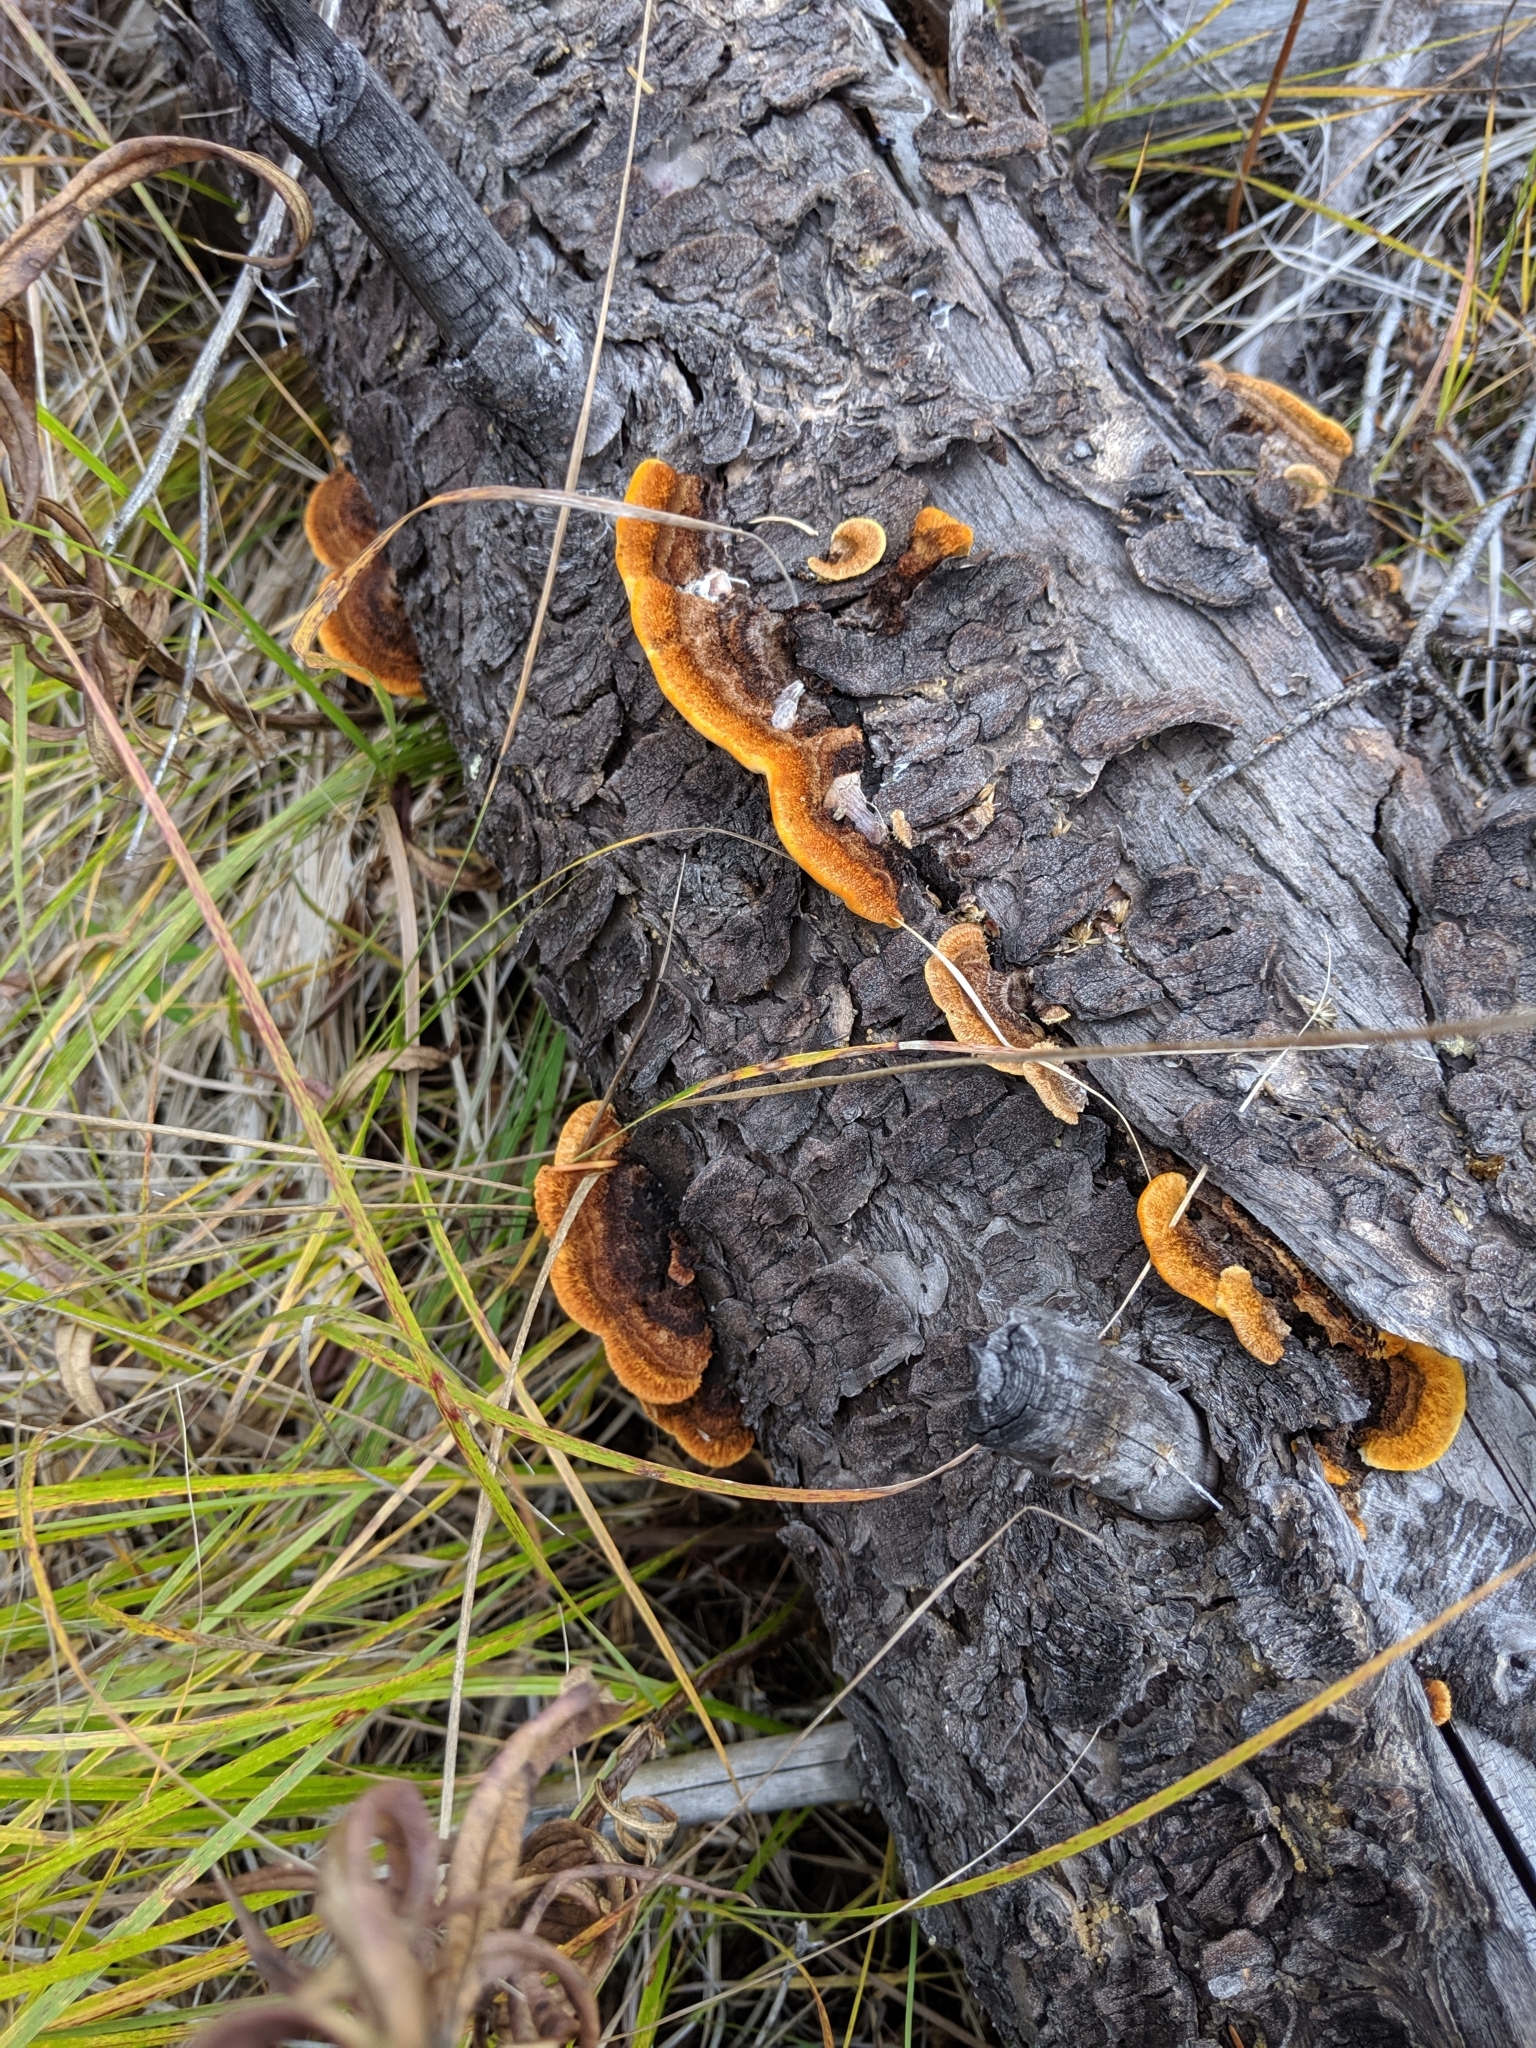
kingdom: Fungi
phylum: Basidiomycota
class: Agaricomycetes
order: Gloeophyllales
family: Gloeophyllaceae
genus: Gloeophyllum
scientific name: Gloeophyllum sepiarium
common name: Conifer mazegill
